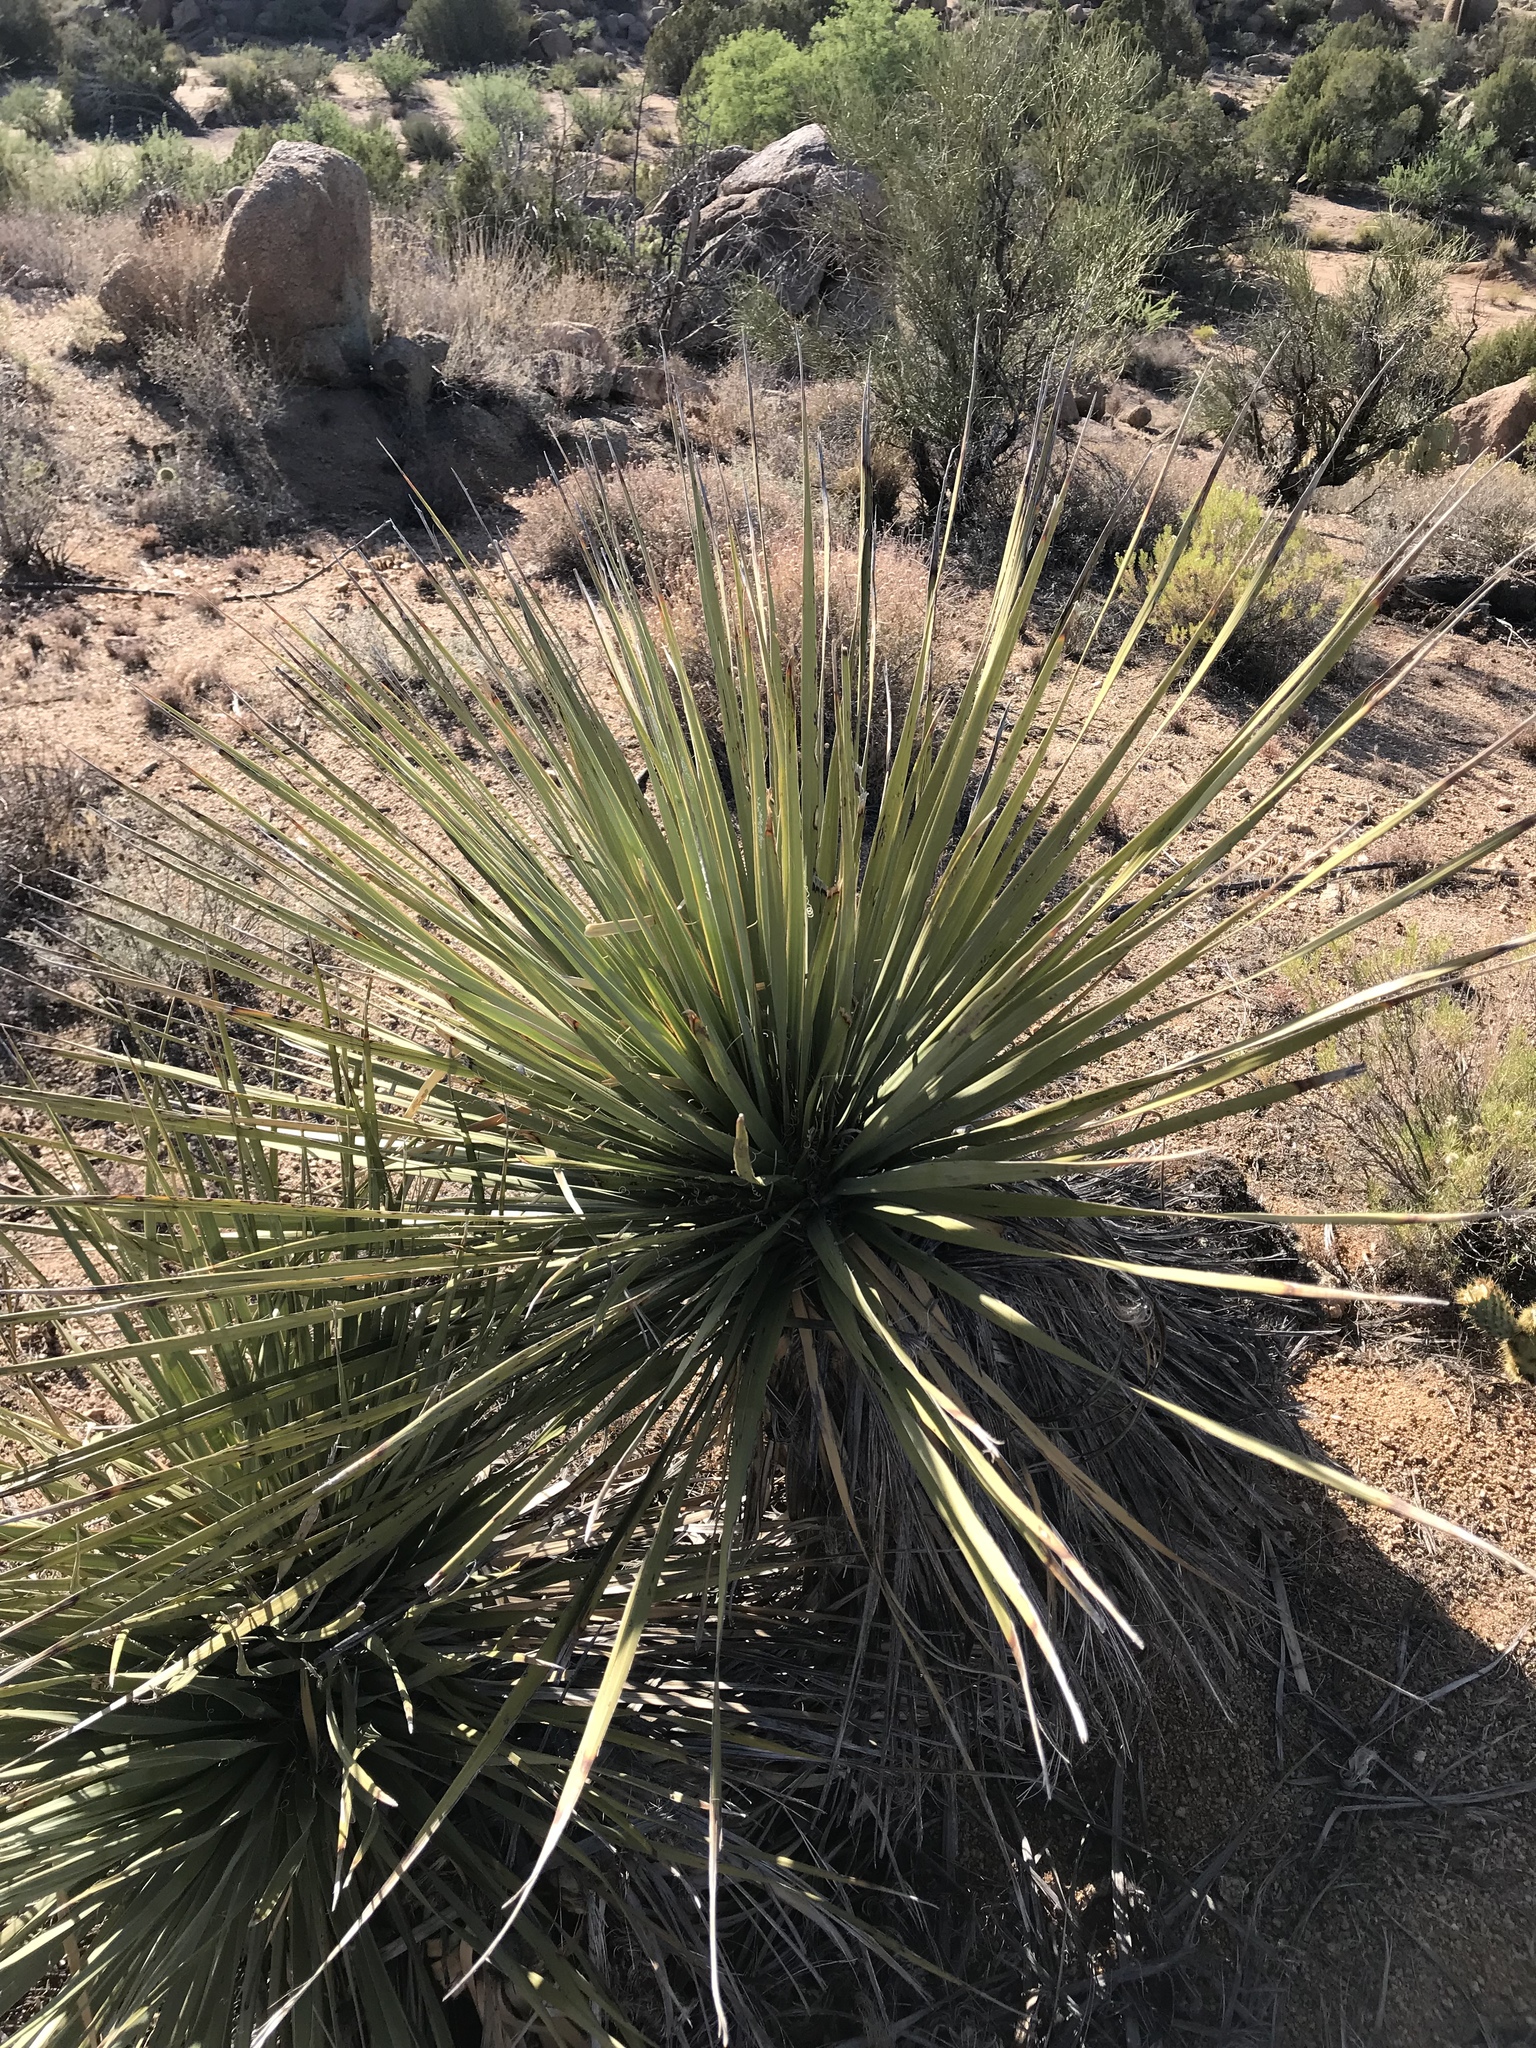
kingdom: Plantae
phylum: Tracheophyta
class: Liliopsida
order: Asparagales
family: Asparagaceae
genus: Nolina
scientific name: Nolina bigelovii
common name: Bigelow bear-grass
